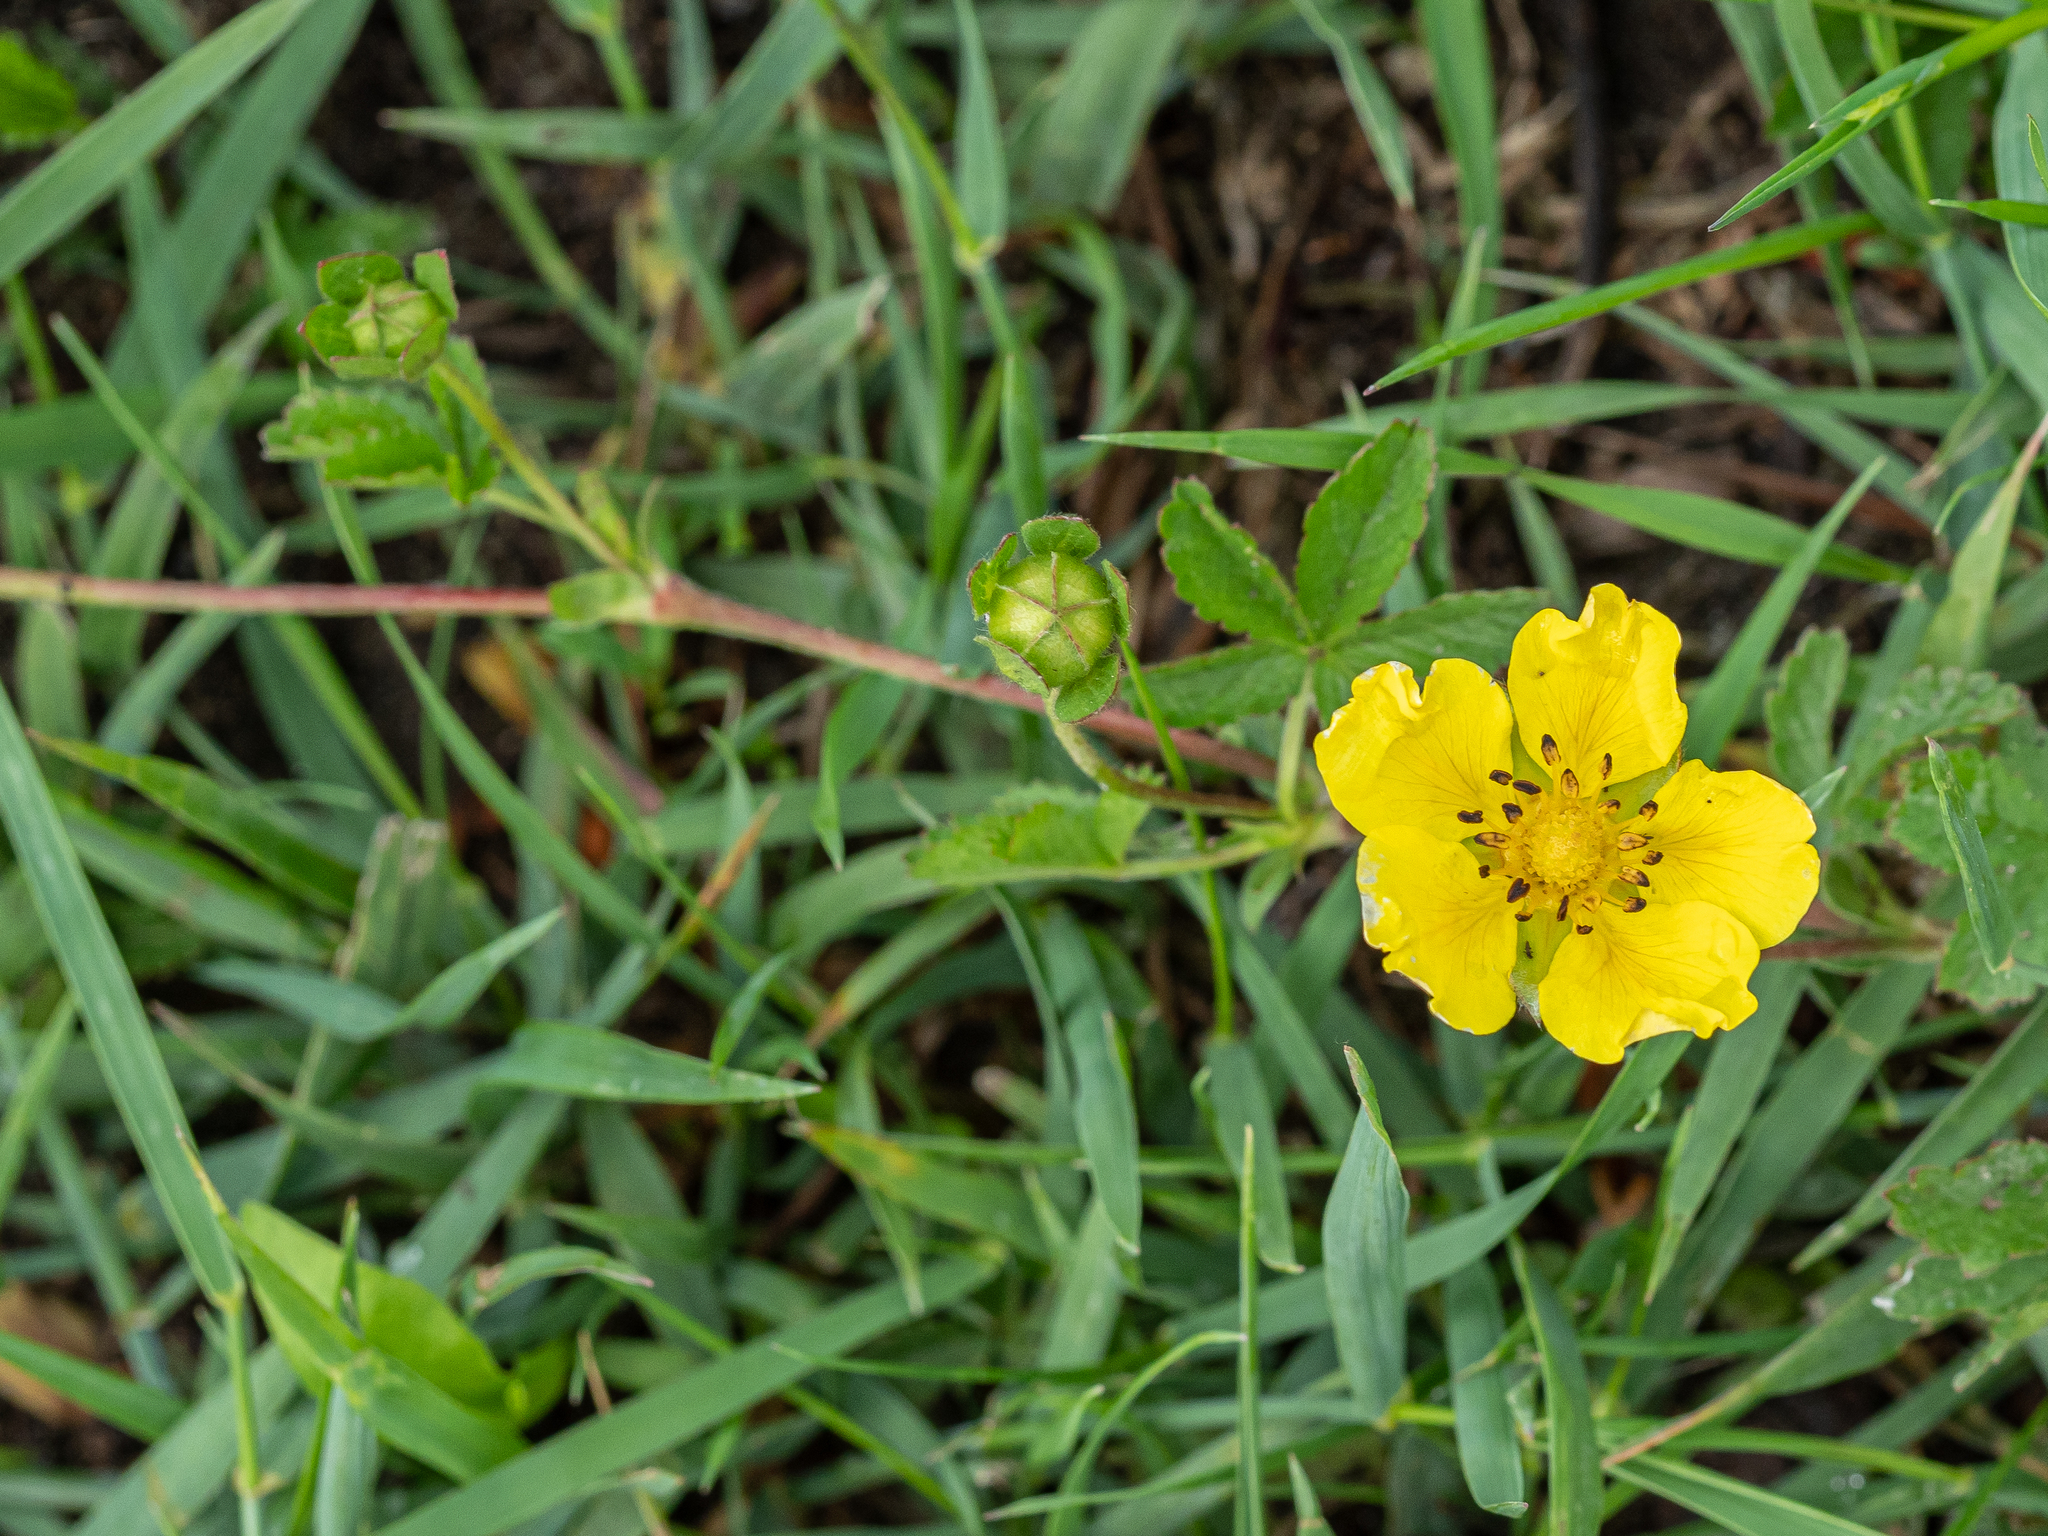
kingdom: Plantae
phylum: Tracheophyta
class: Magnoliopsida
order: Rosales
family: Rosaceae
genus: Potentilla
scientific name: Potentilla reptans
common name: Creeping cinquefoil
